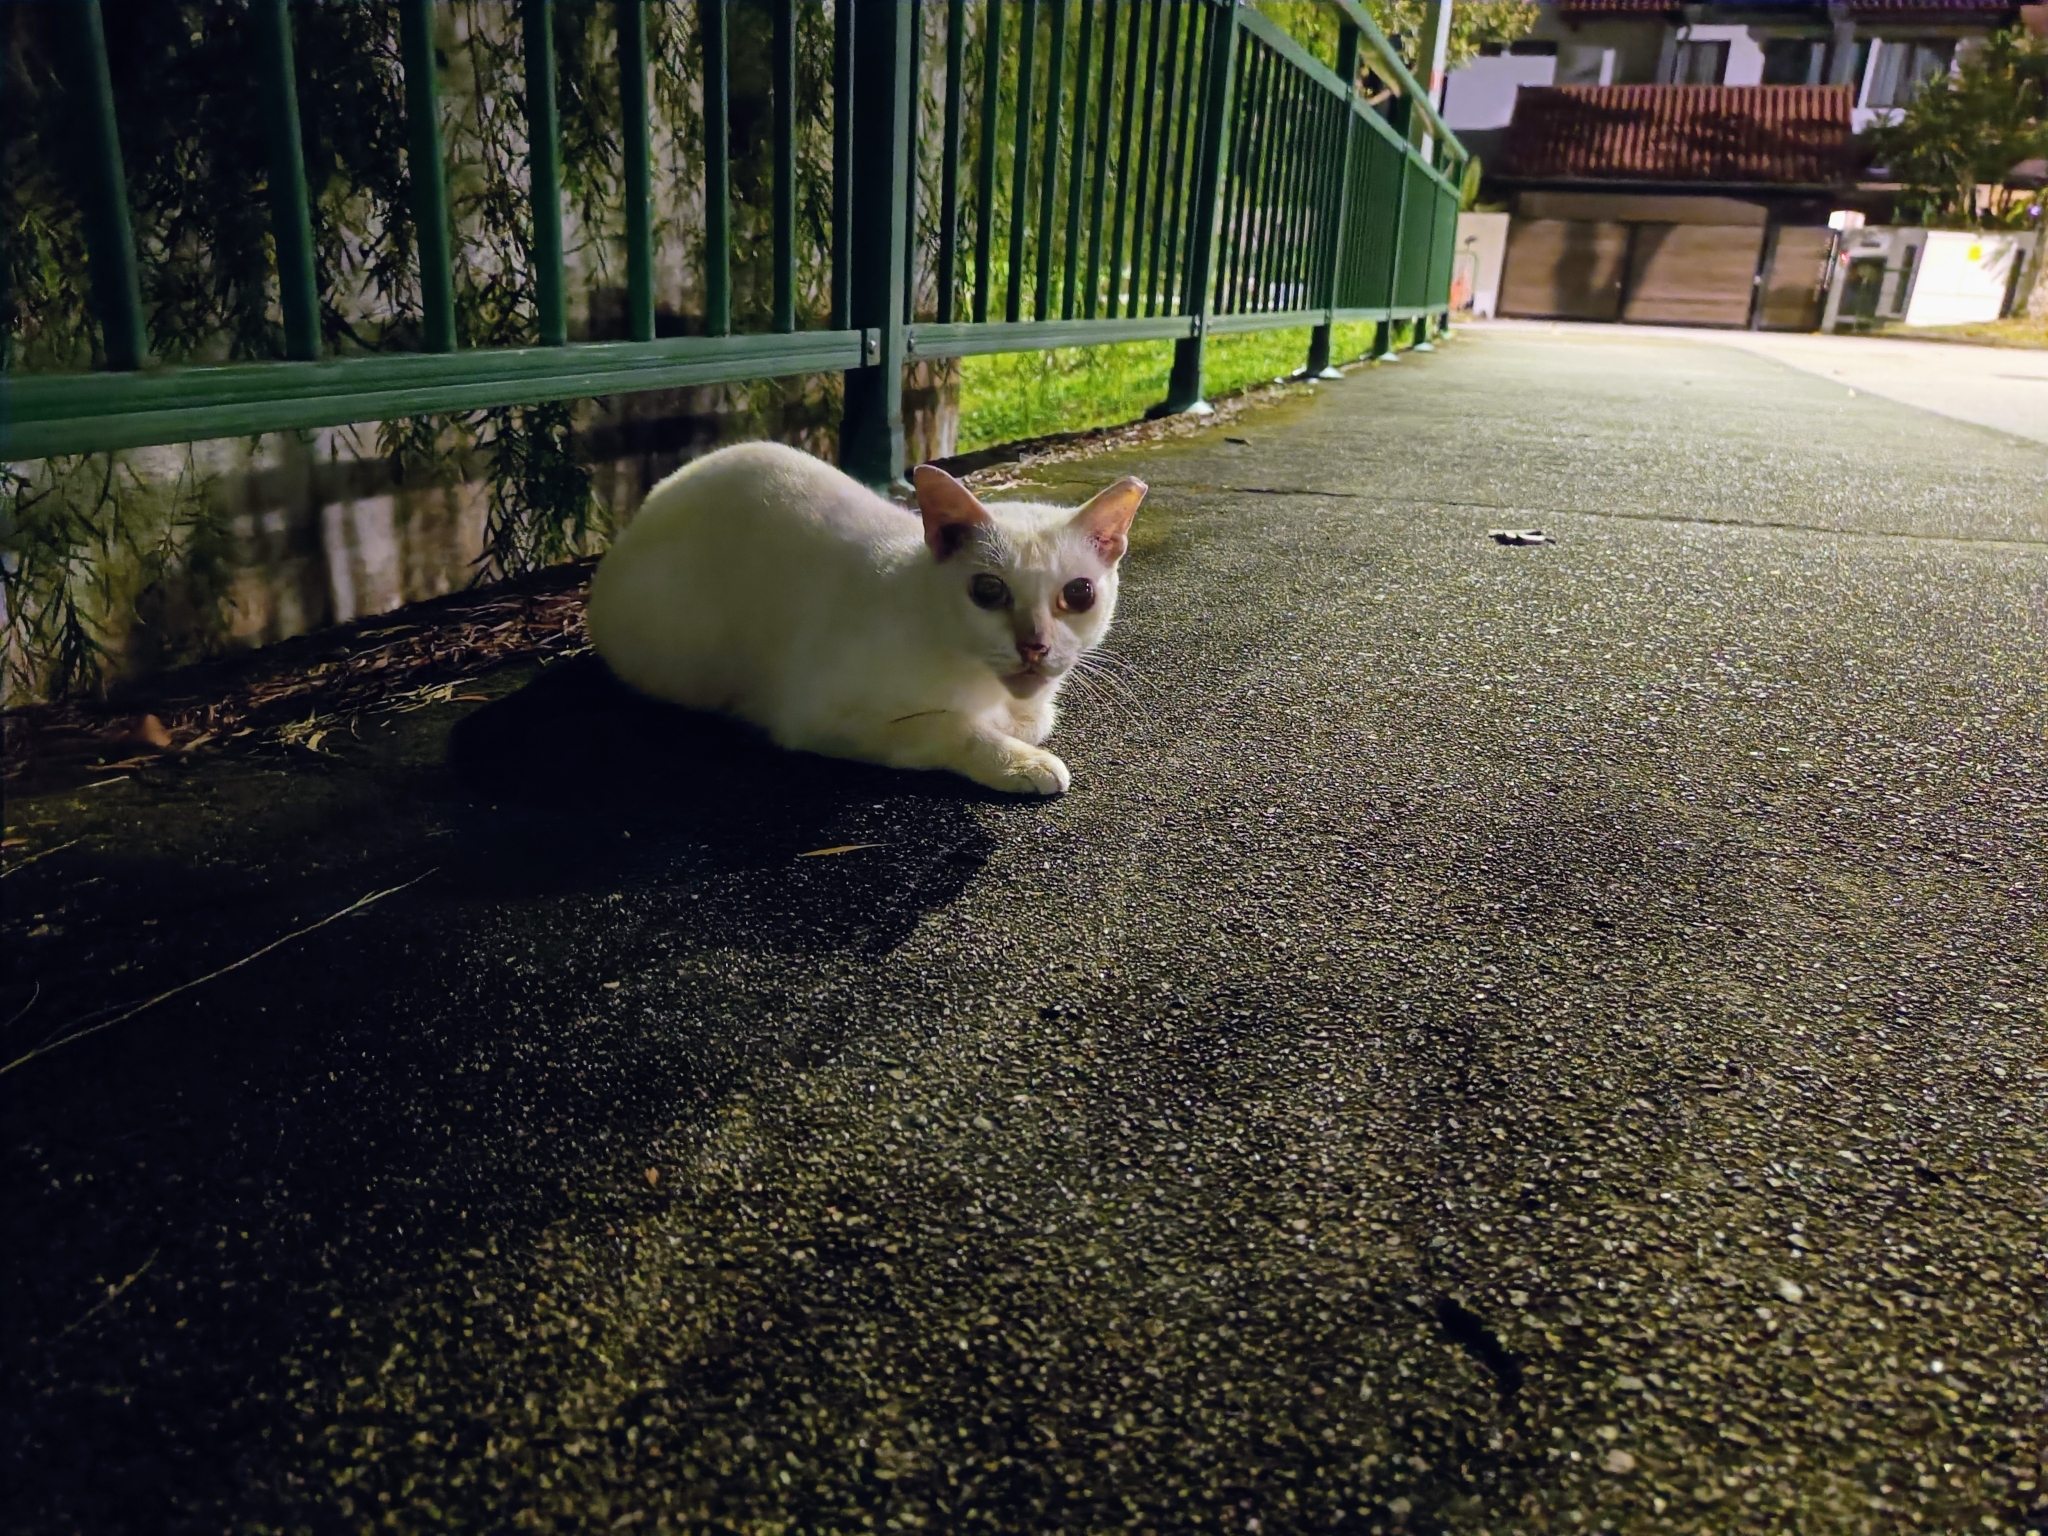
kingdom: Animalia
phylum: Chordata
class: Mammalia
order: Carnivora
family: Felidae
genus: Felis
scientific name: Felis catus
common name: Domestic cat
